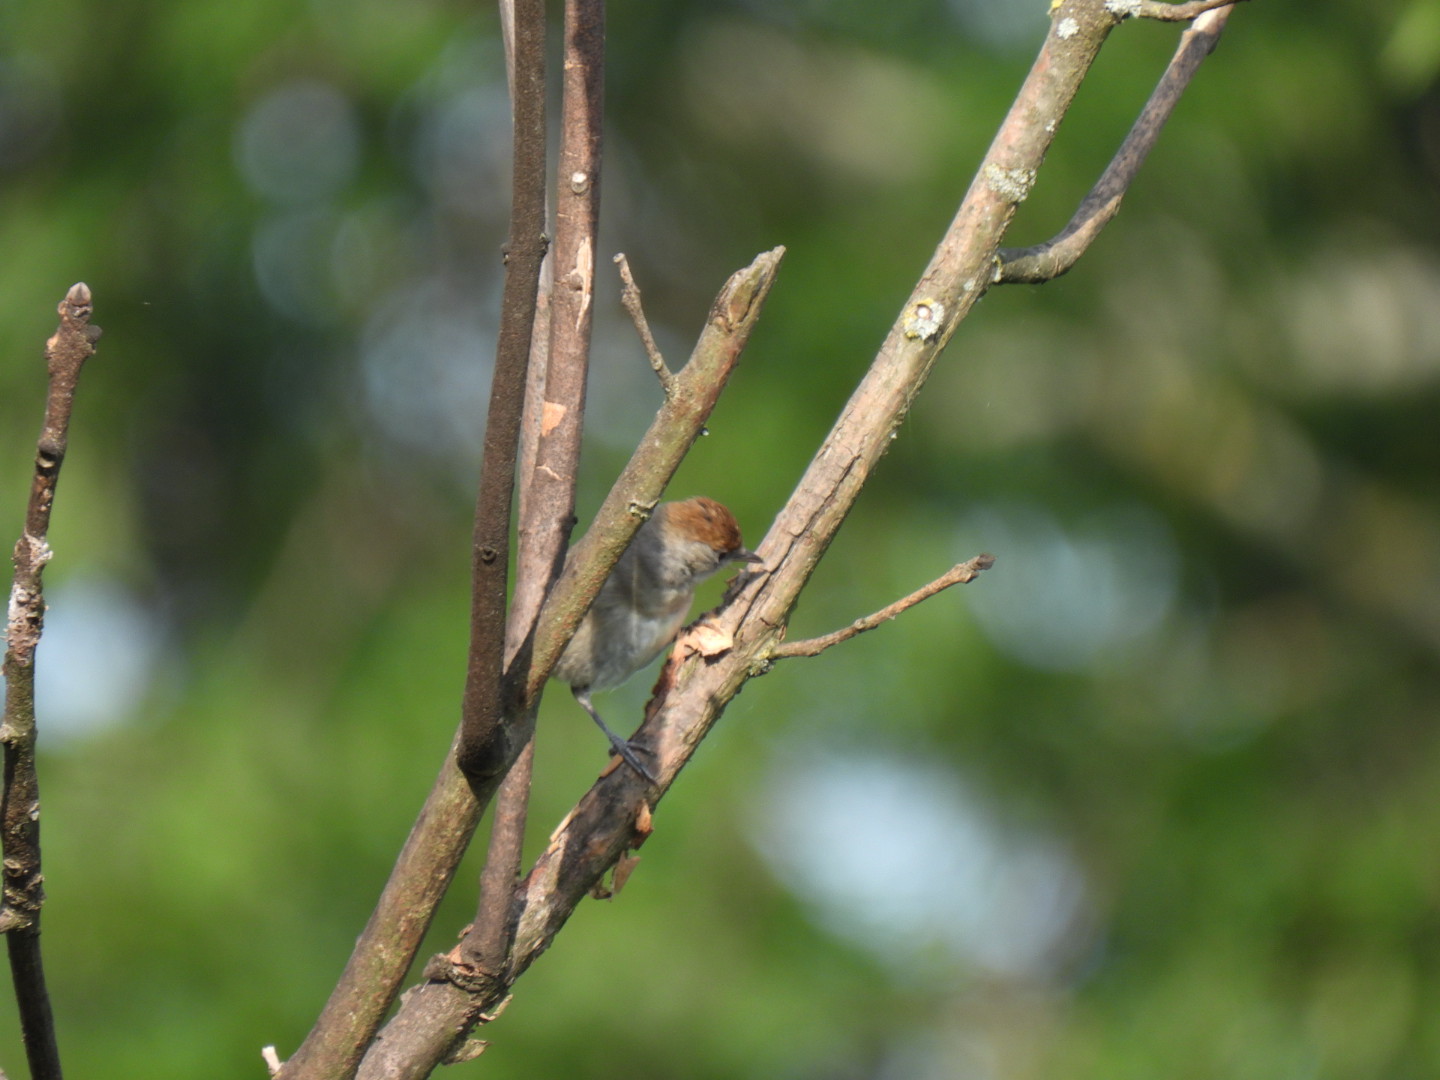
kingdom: Animalia
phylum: Chordata
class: Aves
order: Passeriformes
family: Sylviidae
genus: Sylvia
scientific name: Sylvia atricapilla
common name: Eurasian blackcap
